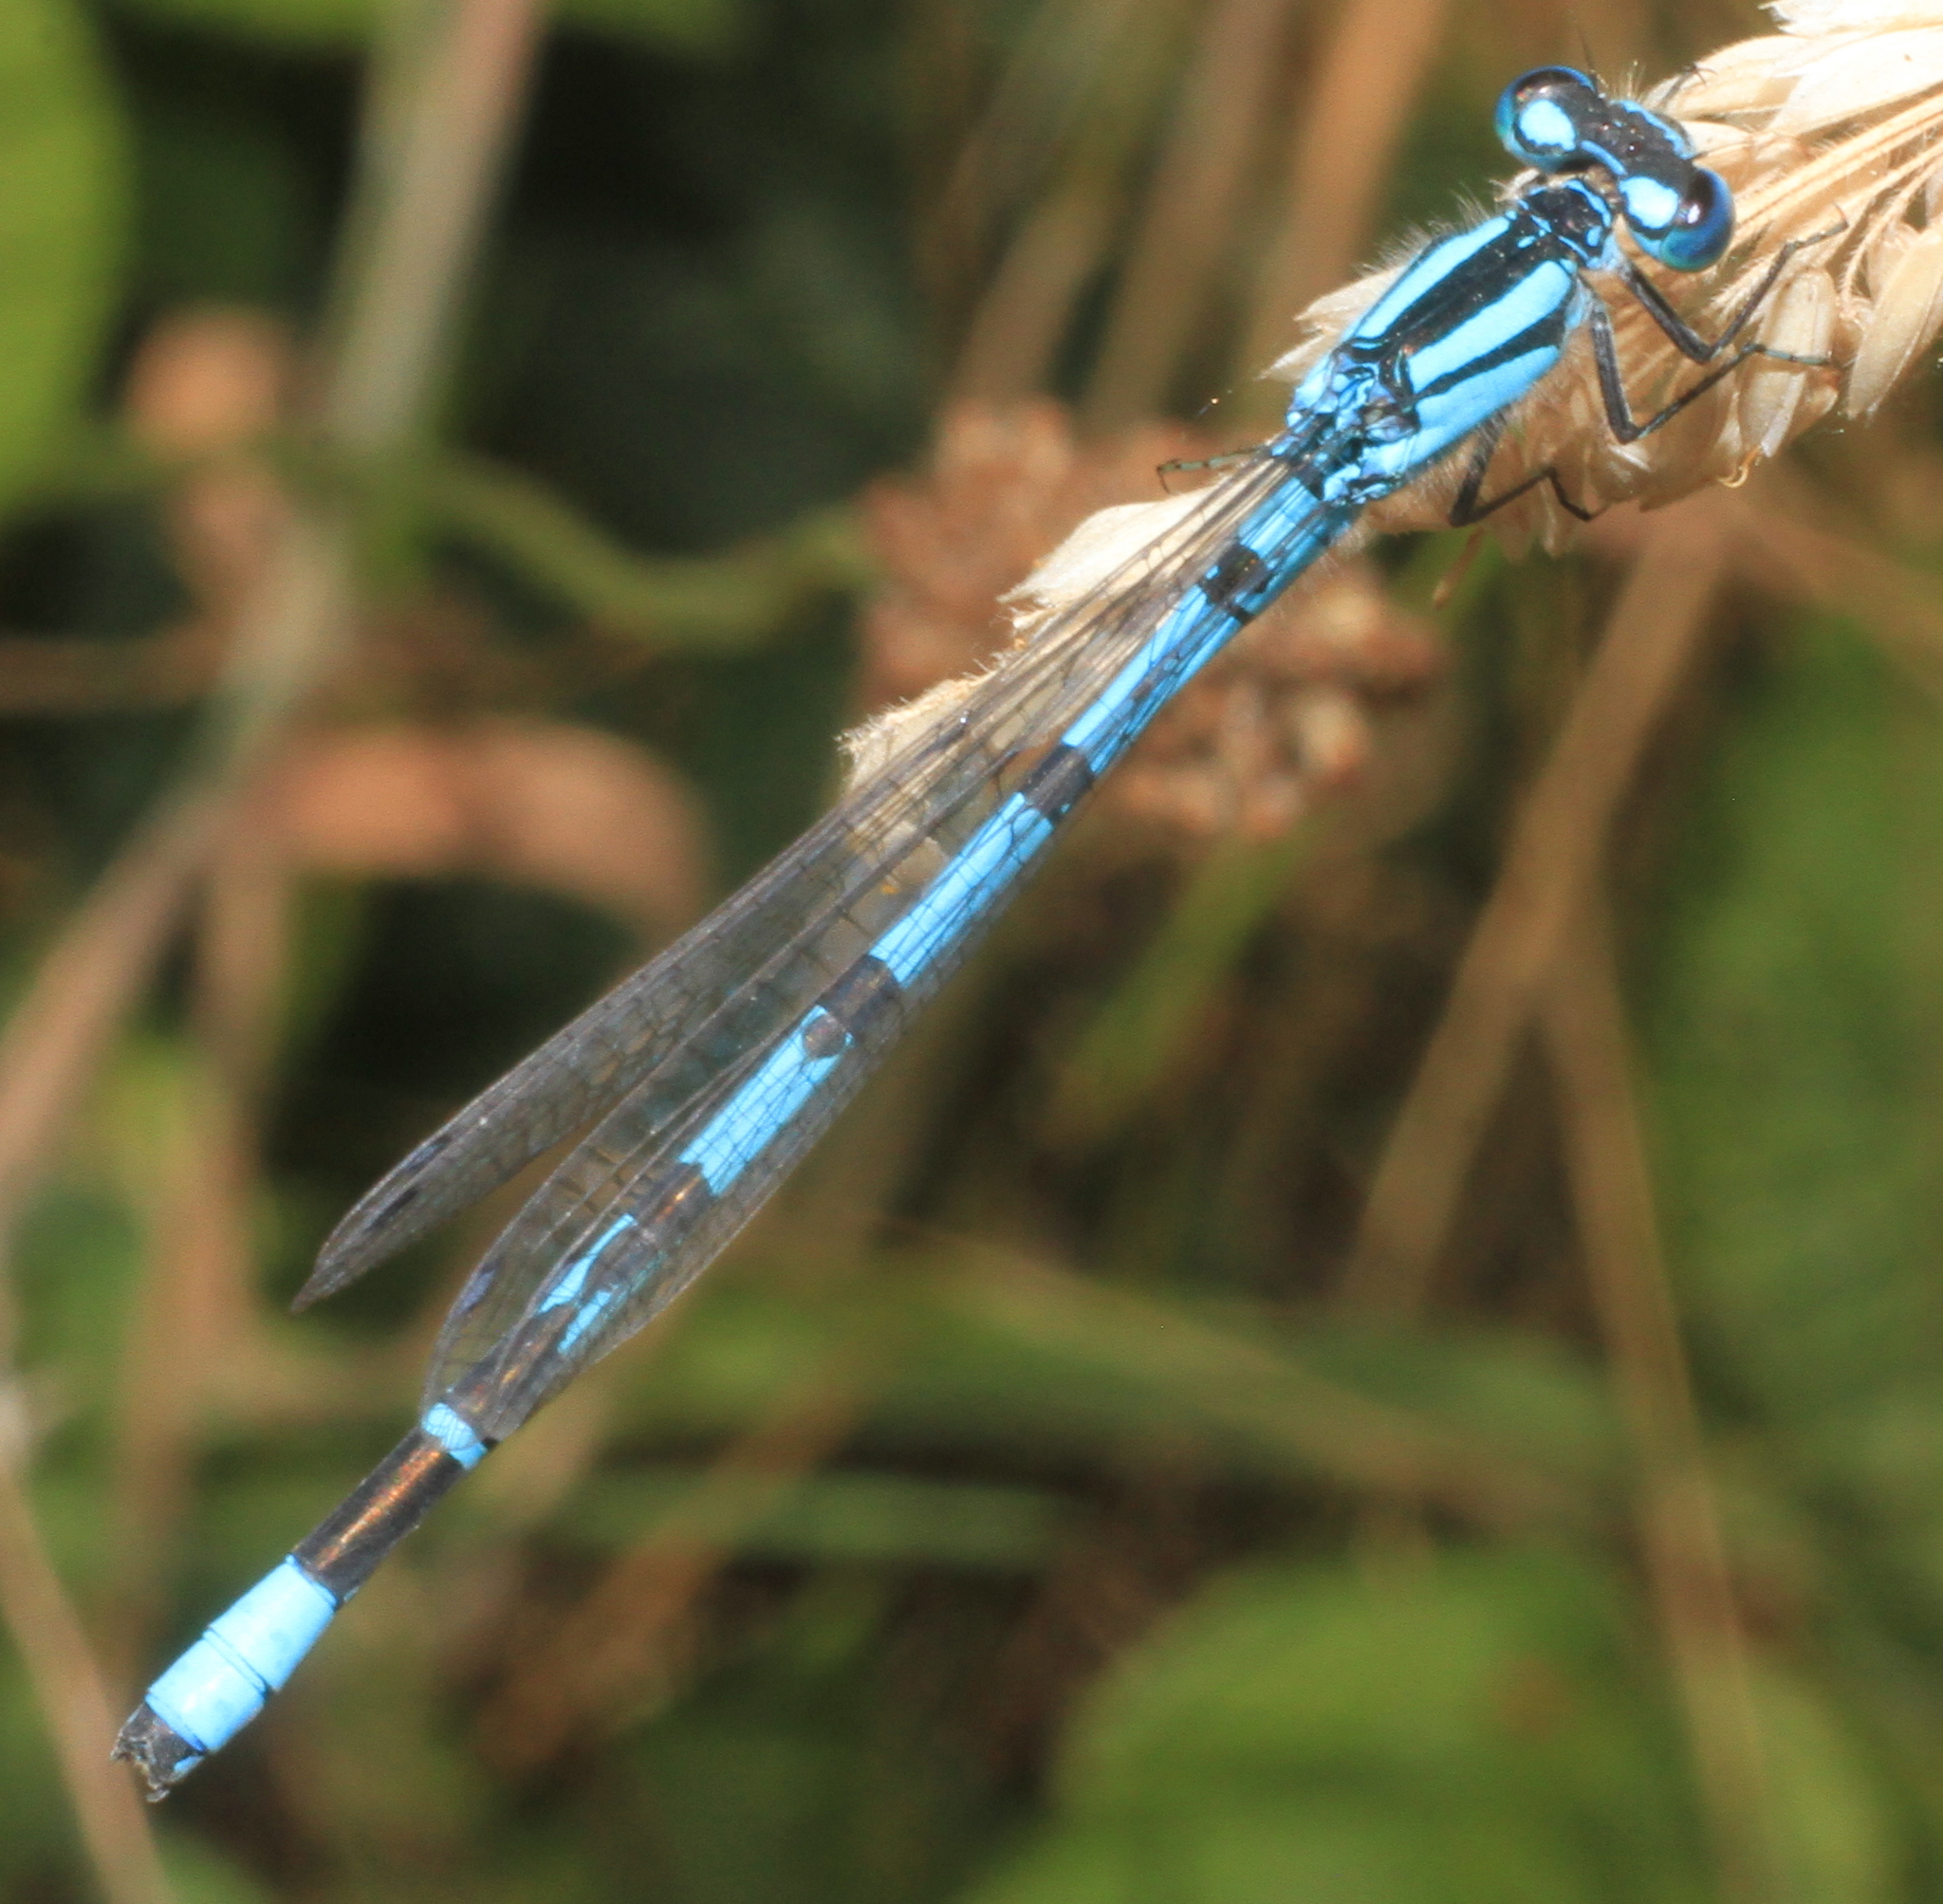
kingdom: Animalia
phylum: Arthropoda
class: Insecta
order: Odonata
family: Coenagrionidae
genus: Enallagma
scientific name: Enallagma cyathigerum
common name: Common blue damselfly
